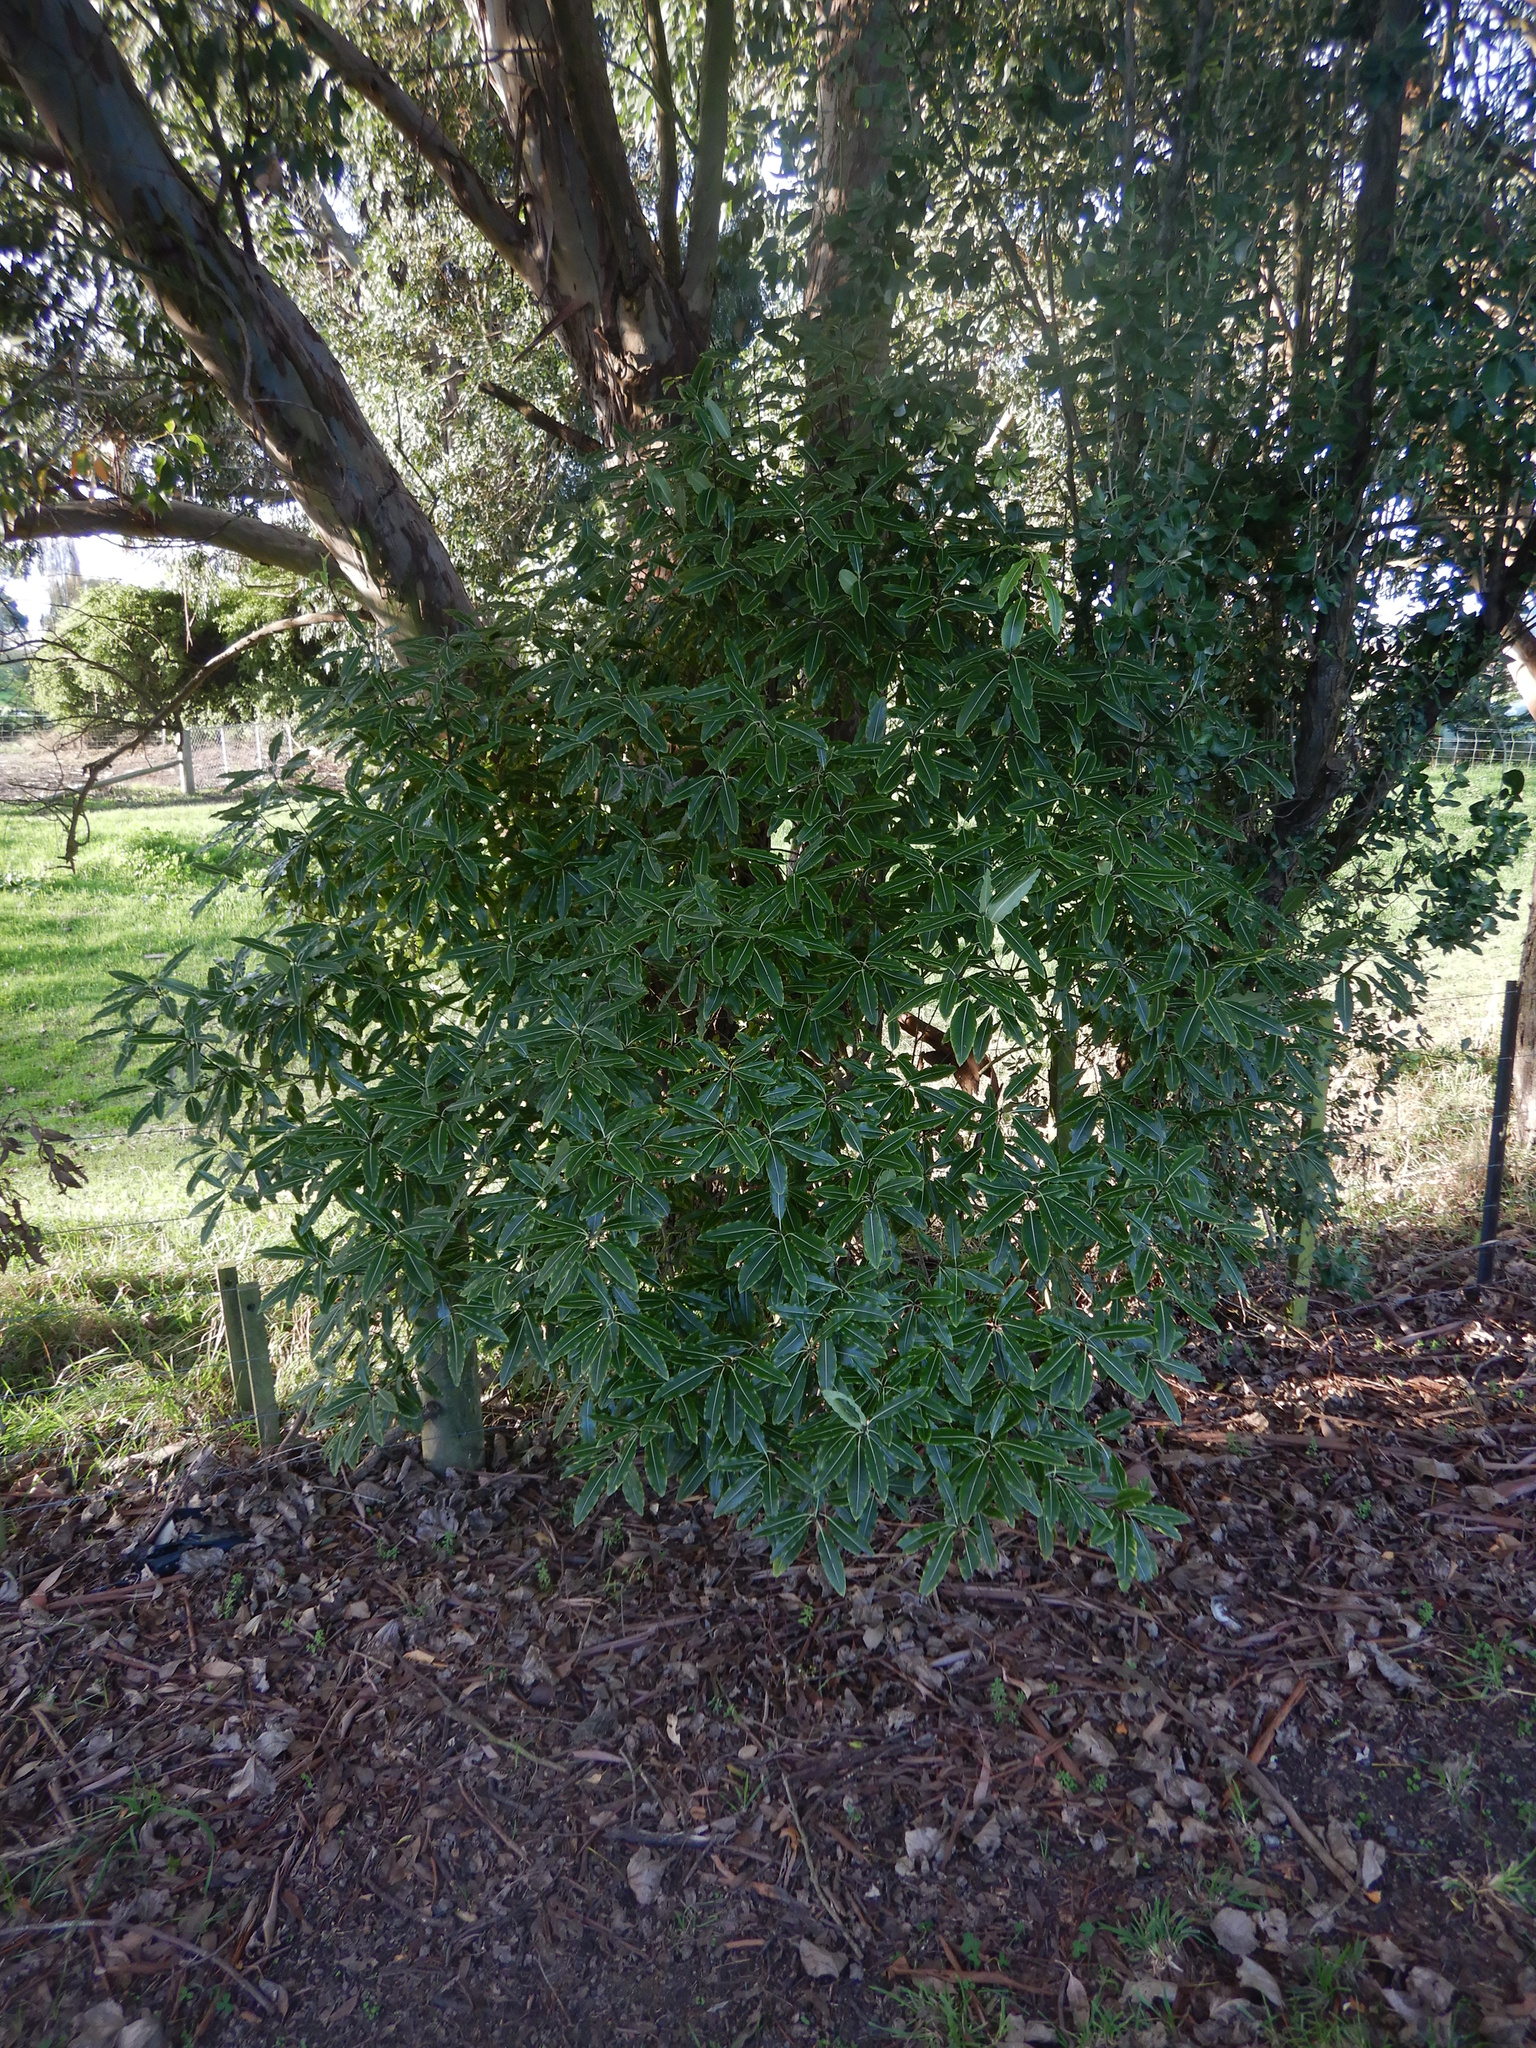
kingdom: Plantae
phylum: Tracheophyta
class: Magnoliopsida
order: Apiales
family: Pittosporaceae
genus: Pittosporum
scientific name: Pittosporum eugenioides
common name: Lemonwood
